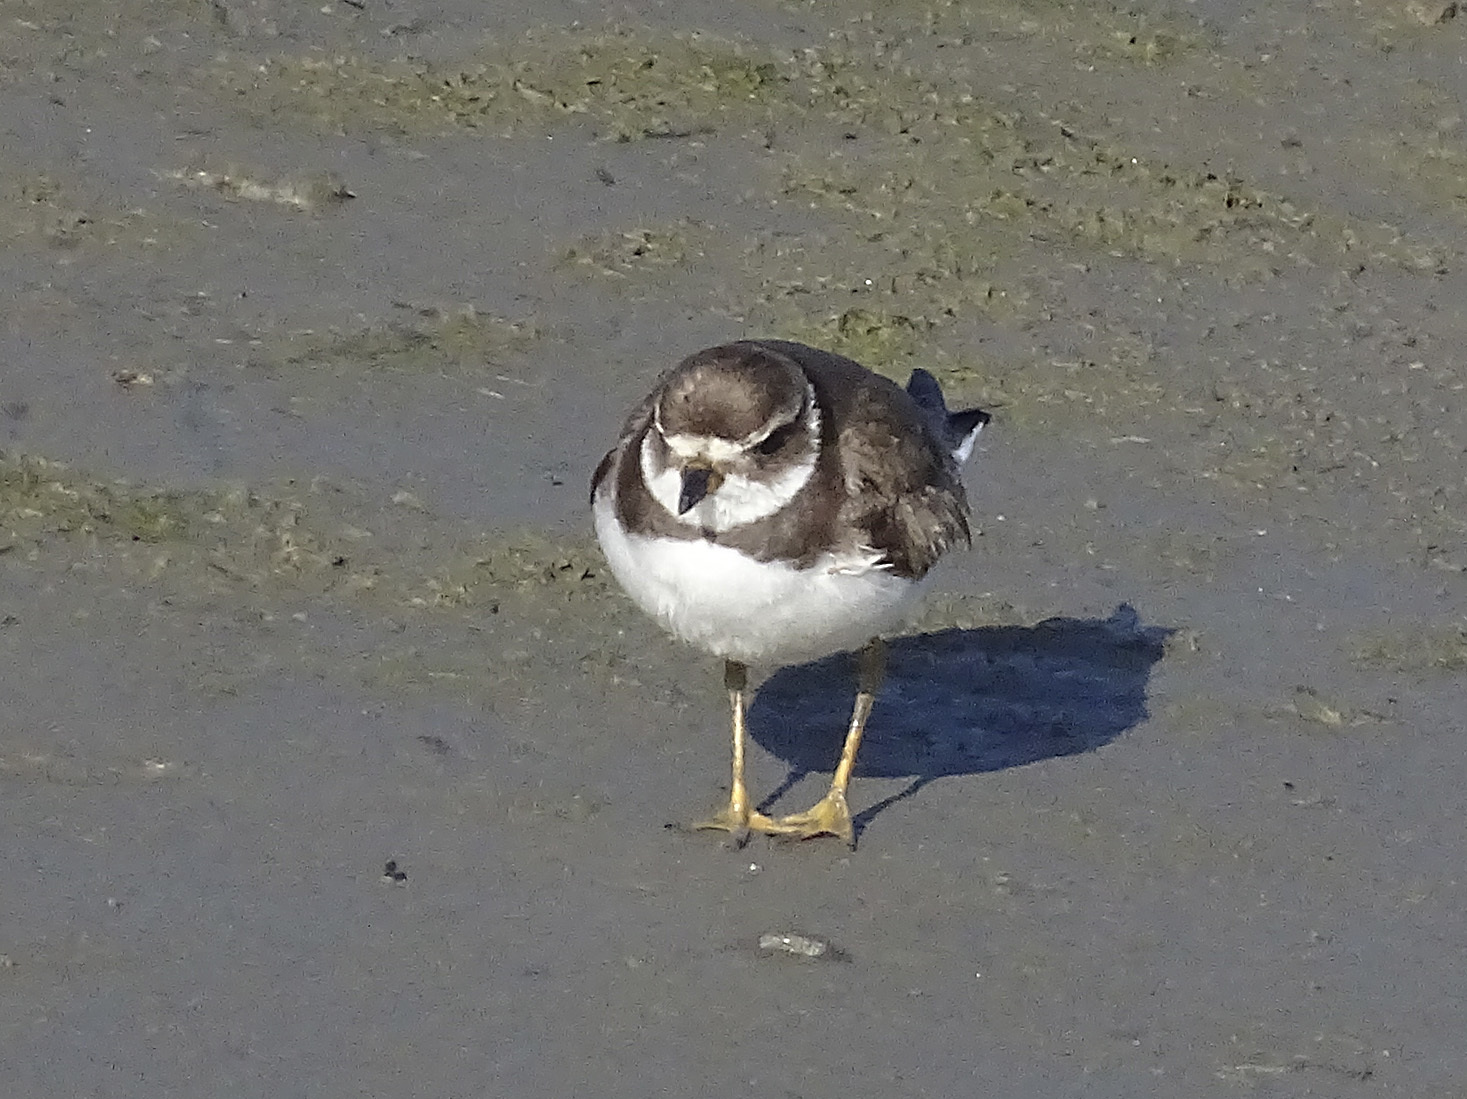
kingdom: Animalia
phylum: Chordata
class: Aves
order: Charadriiformes
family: Charadriidae
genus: Charadrius
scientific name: Charadrius semipalmatus
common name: Semipalmated plover
